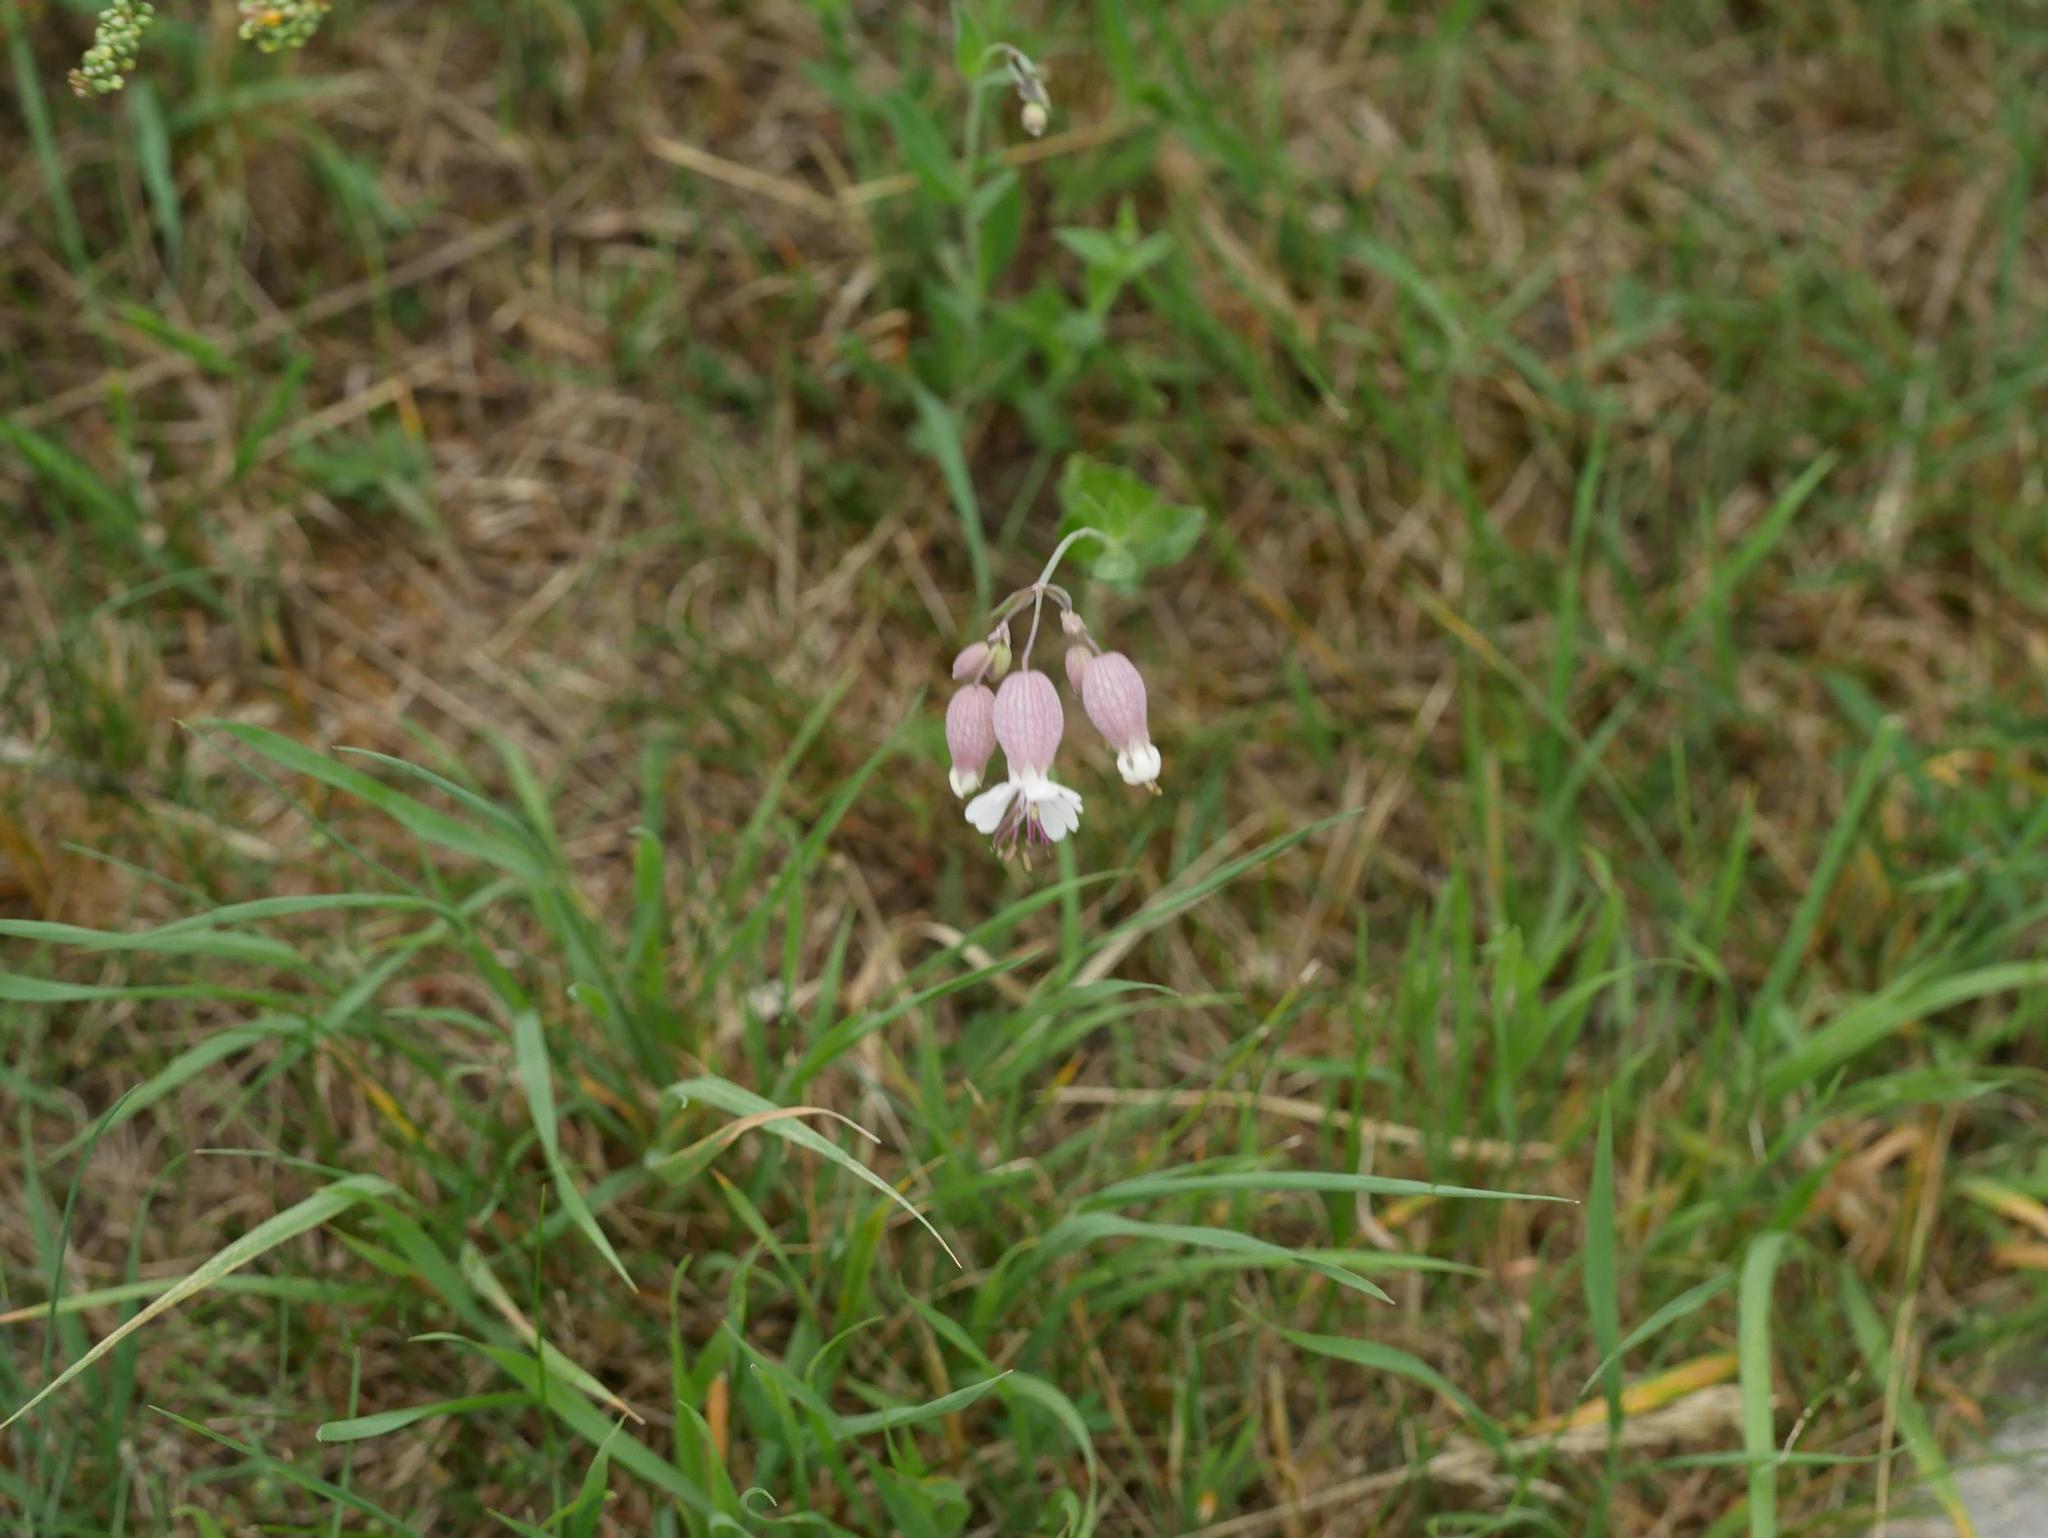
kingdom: Plantae
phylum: Tracheophyta
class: Magnoliopsida
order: Caryophyllales
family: Caryophyllaceae
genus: Silene
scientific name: Silene vulgaris
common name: Bladder campion
